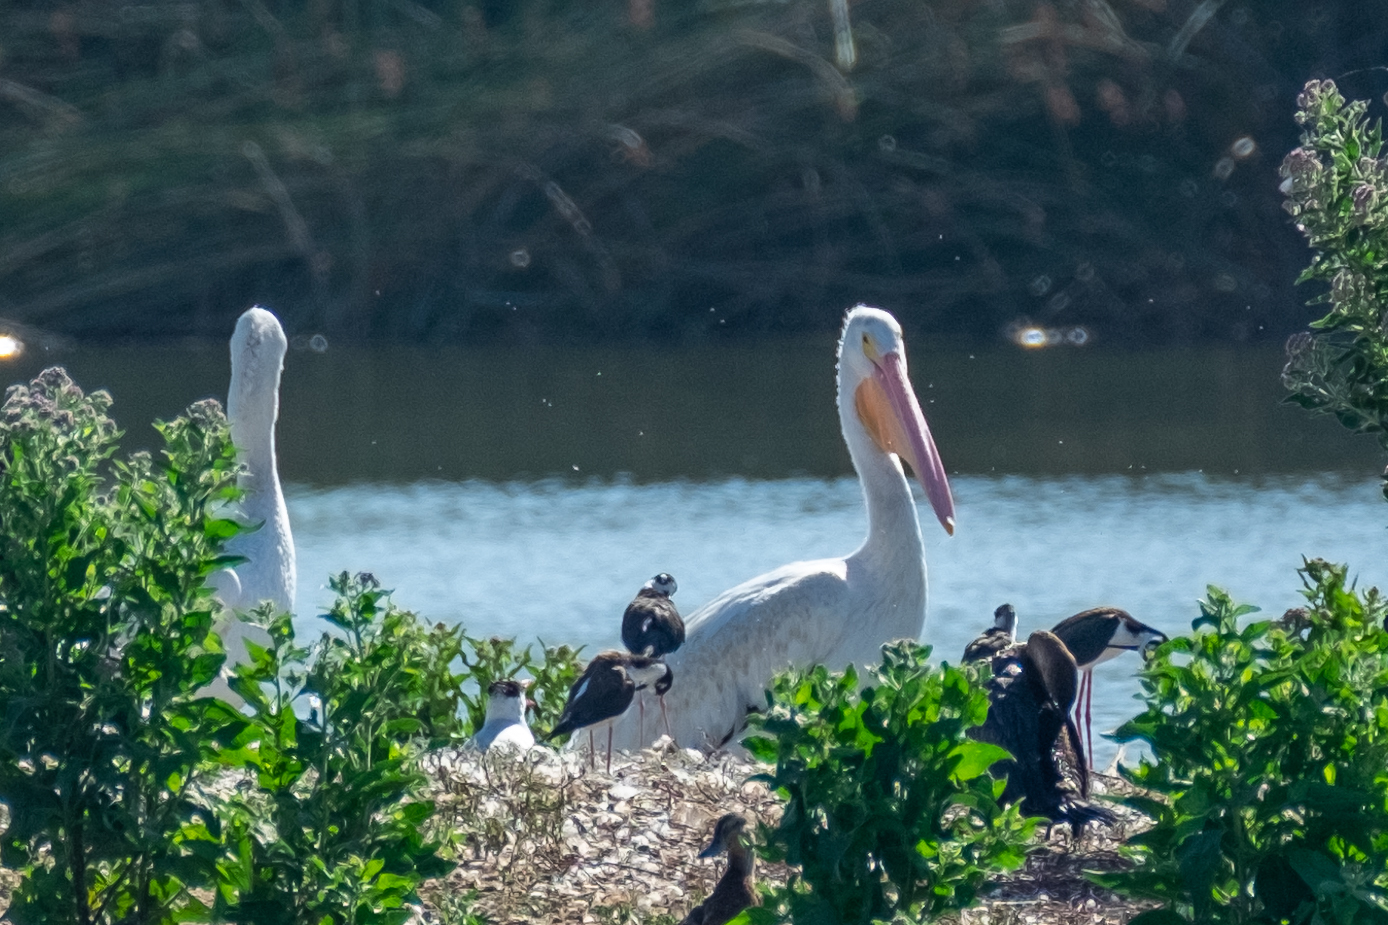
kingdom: Animalia
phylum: Chordata
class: Aves
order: Pelecaniformes
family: Pelecanidae
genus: Pelecanus
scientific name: Pelecanus erythrorhynchos
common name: American white pelican
